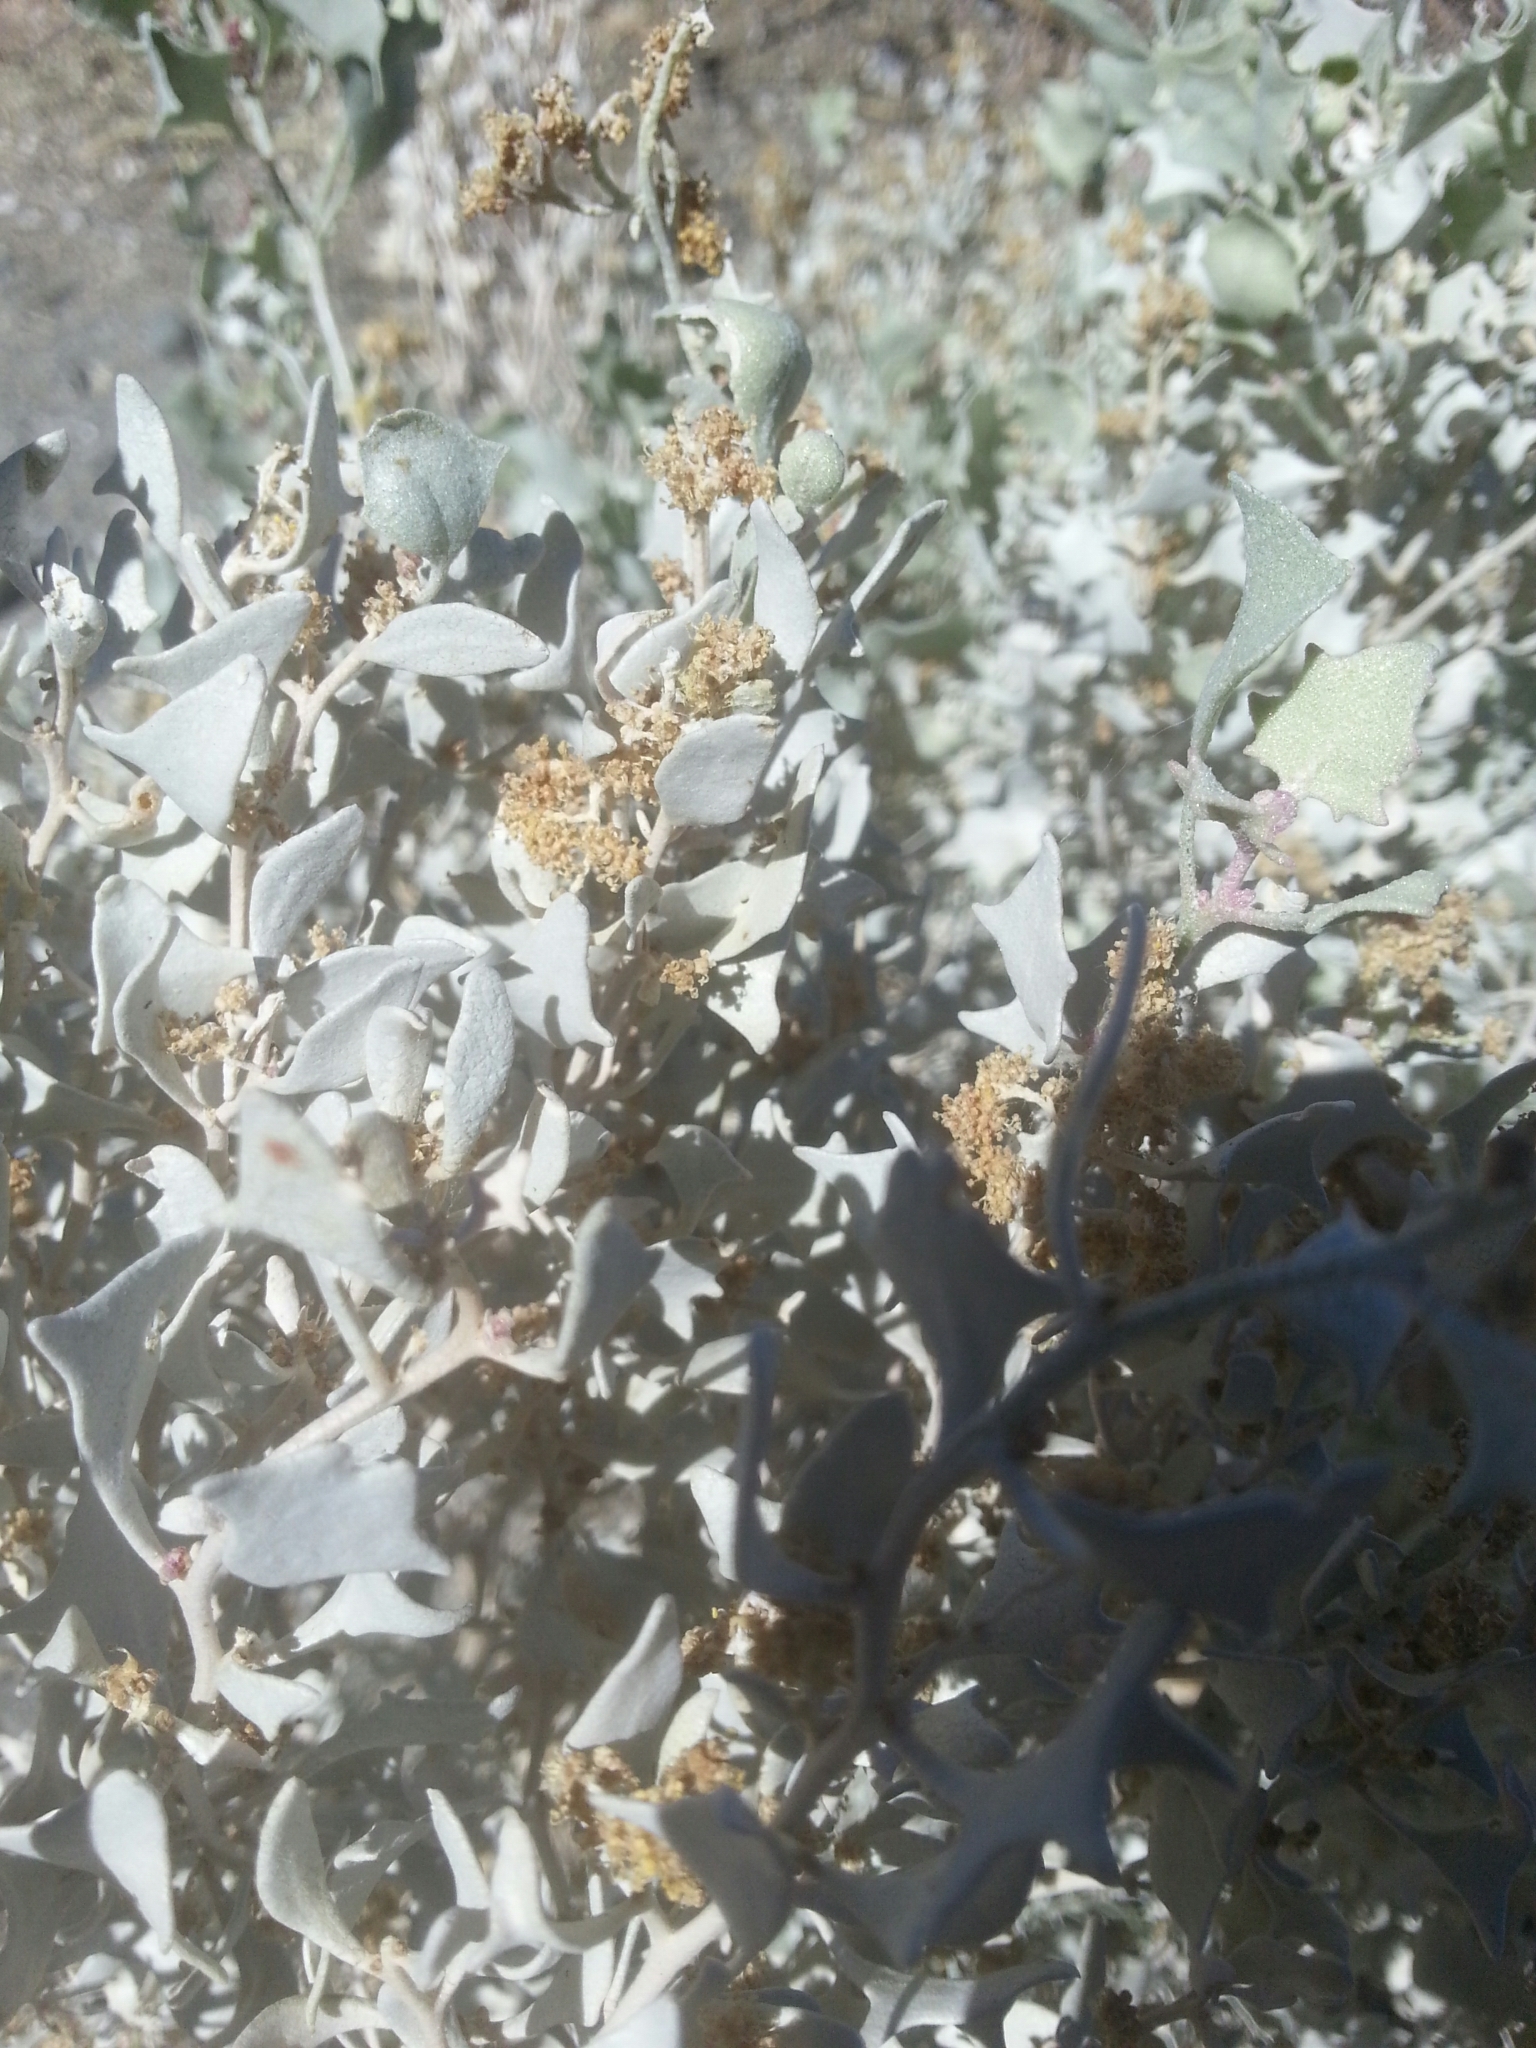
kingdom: Plantae
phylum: Tracheophyta
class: Magnoliopsida
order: Caryophyllales
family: Amaranthaceae
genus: Atriplex
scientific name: Atriplex hymenelytra
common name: Desert-holly
